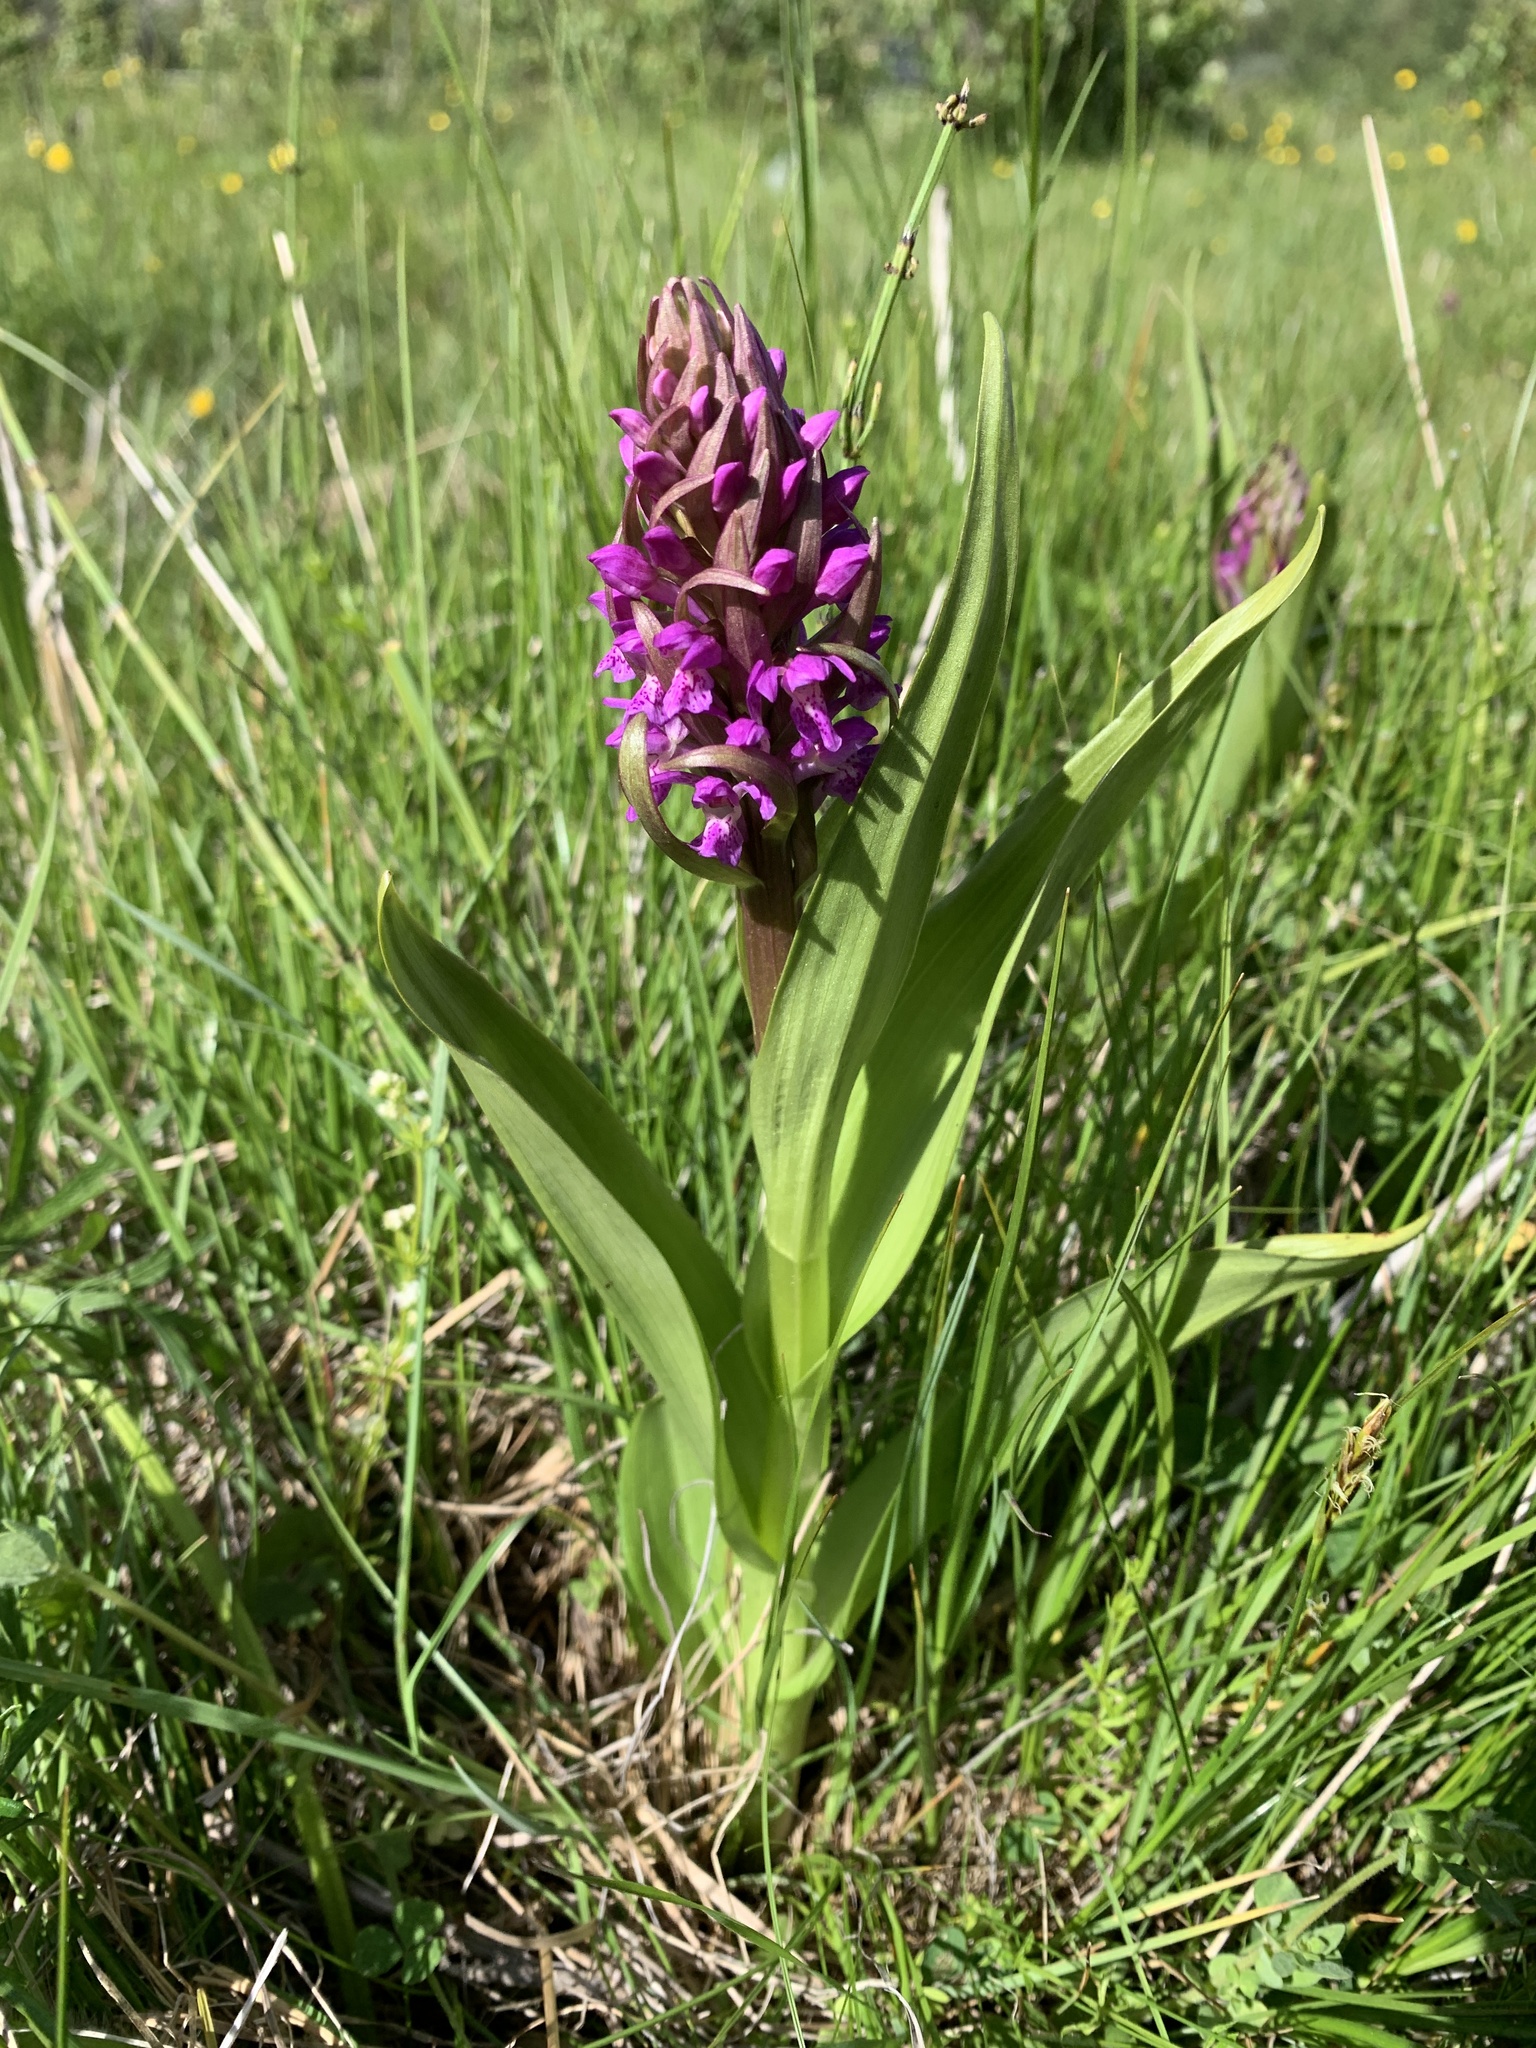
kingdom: Plantae
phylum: Tracheophyta
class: Liliopsida
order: Asparagales
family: Orchidaceae
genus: Dactylorhiza
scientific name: Dactylorhiza incarnata
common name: Early marsh-orchid
